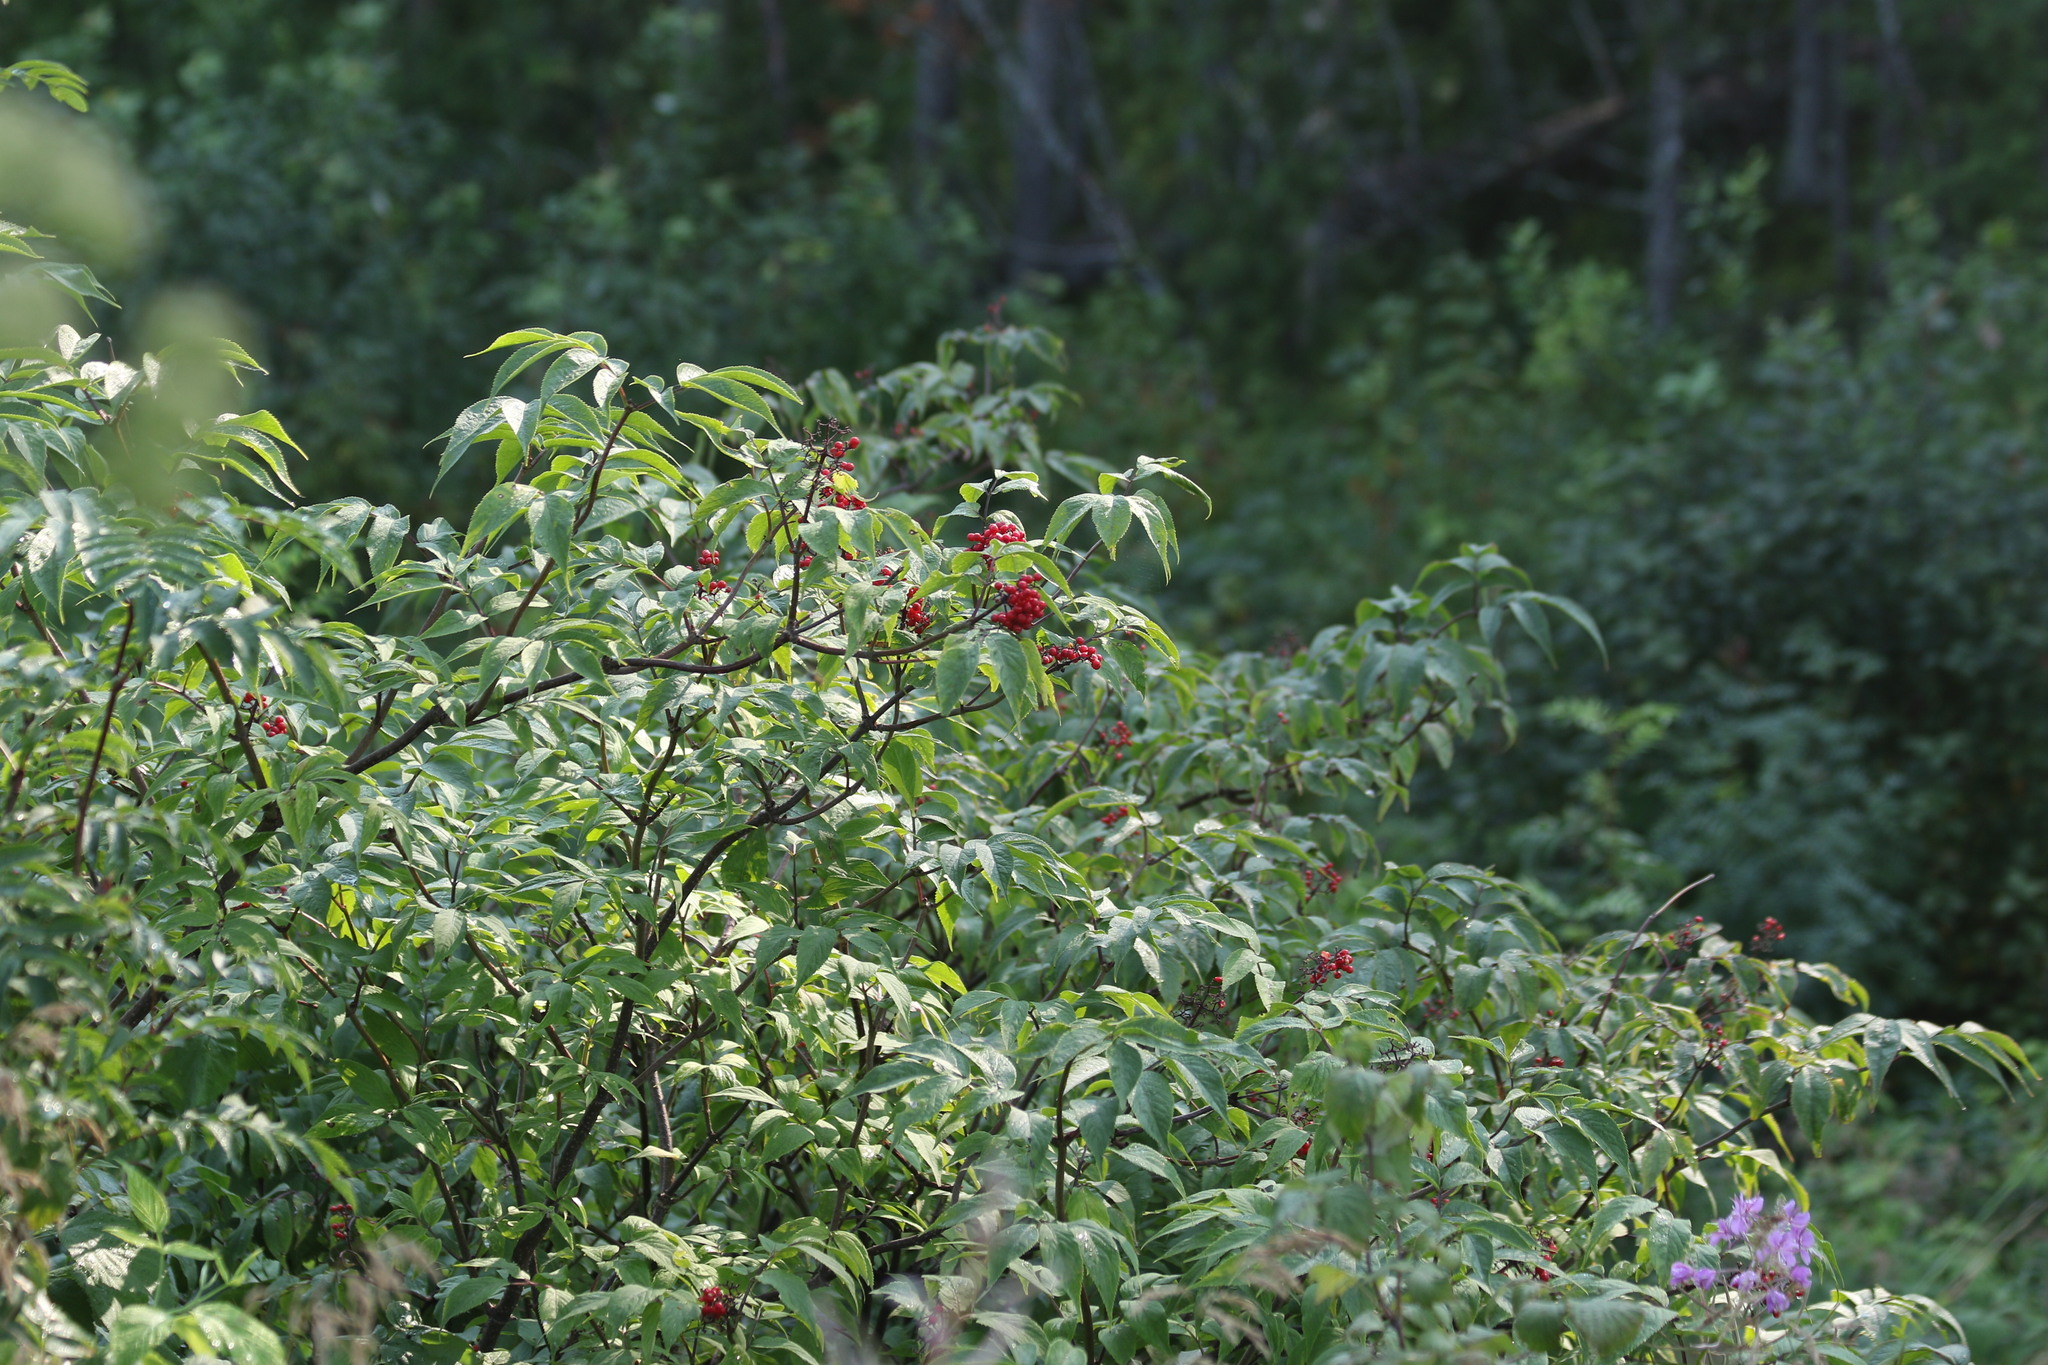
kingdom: Plantae
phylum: Tracheophyta
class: Magnoliopsida
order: Dipsacales
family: Viburnaceae
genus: Sambucus
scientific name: Sambucus sibirica
